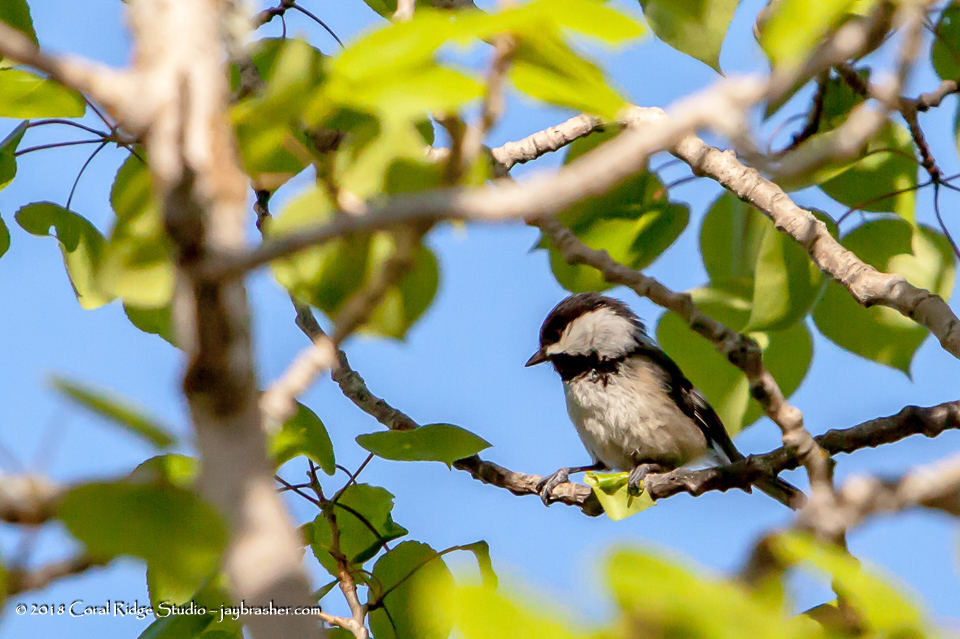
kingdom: Animalia
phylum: Chordata
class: Aves
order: Passeriformes
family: Paridae
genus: Poecile
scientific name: Poecile atricapillus
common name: Black-capped chickadee
